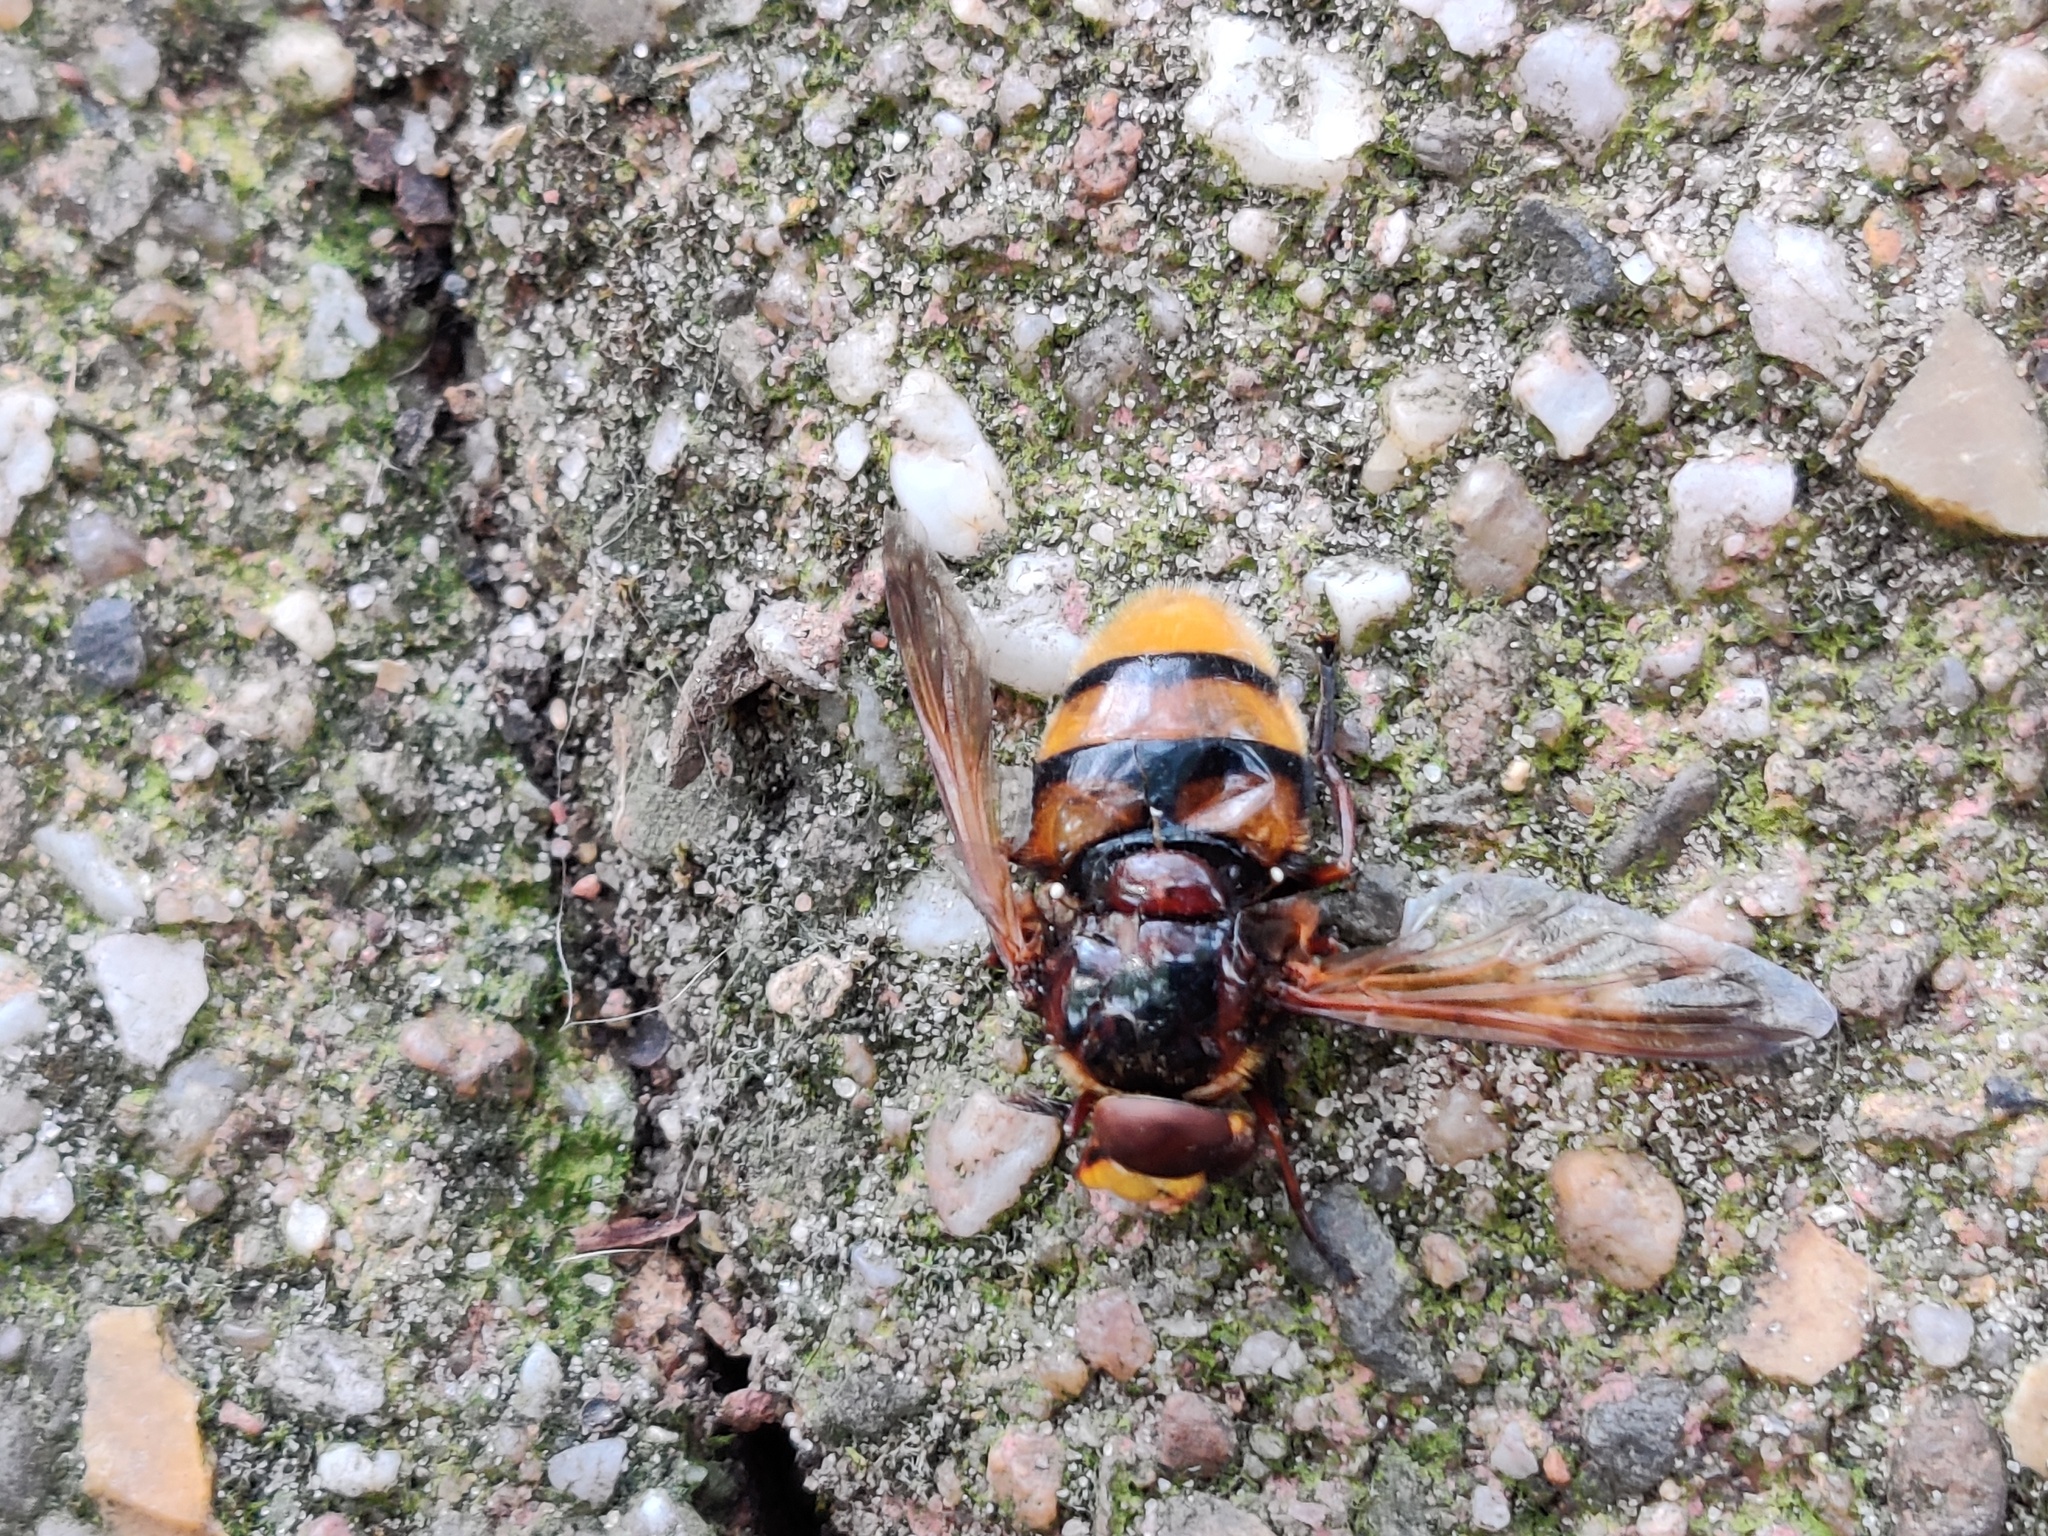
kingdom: Animalia
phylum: Arthropoda
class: Insecta
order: Diptera
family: Syrphidae
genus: Volucella
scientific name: Volucella zonaria
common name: Hornet hoverfly
